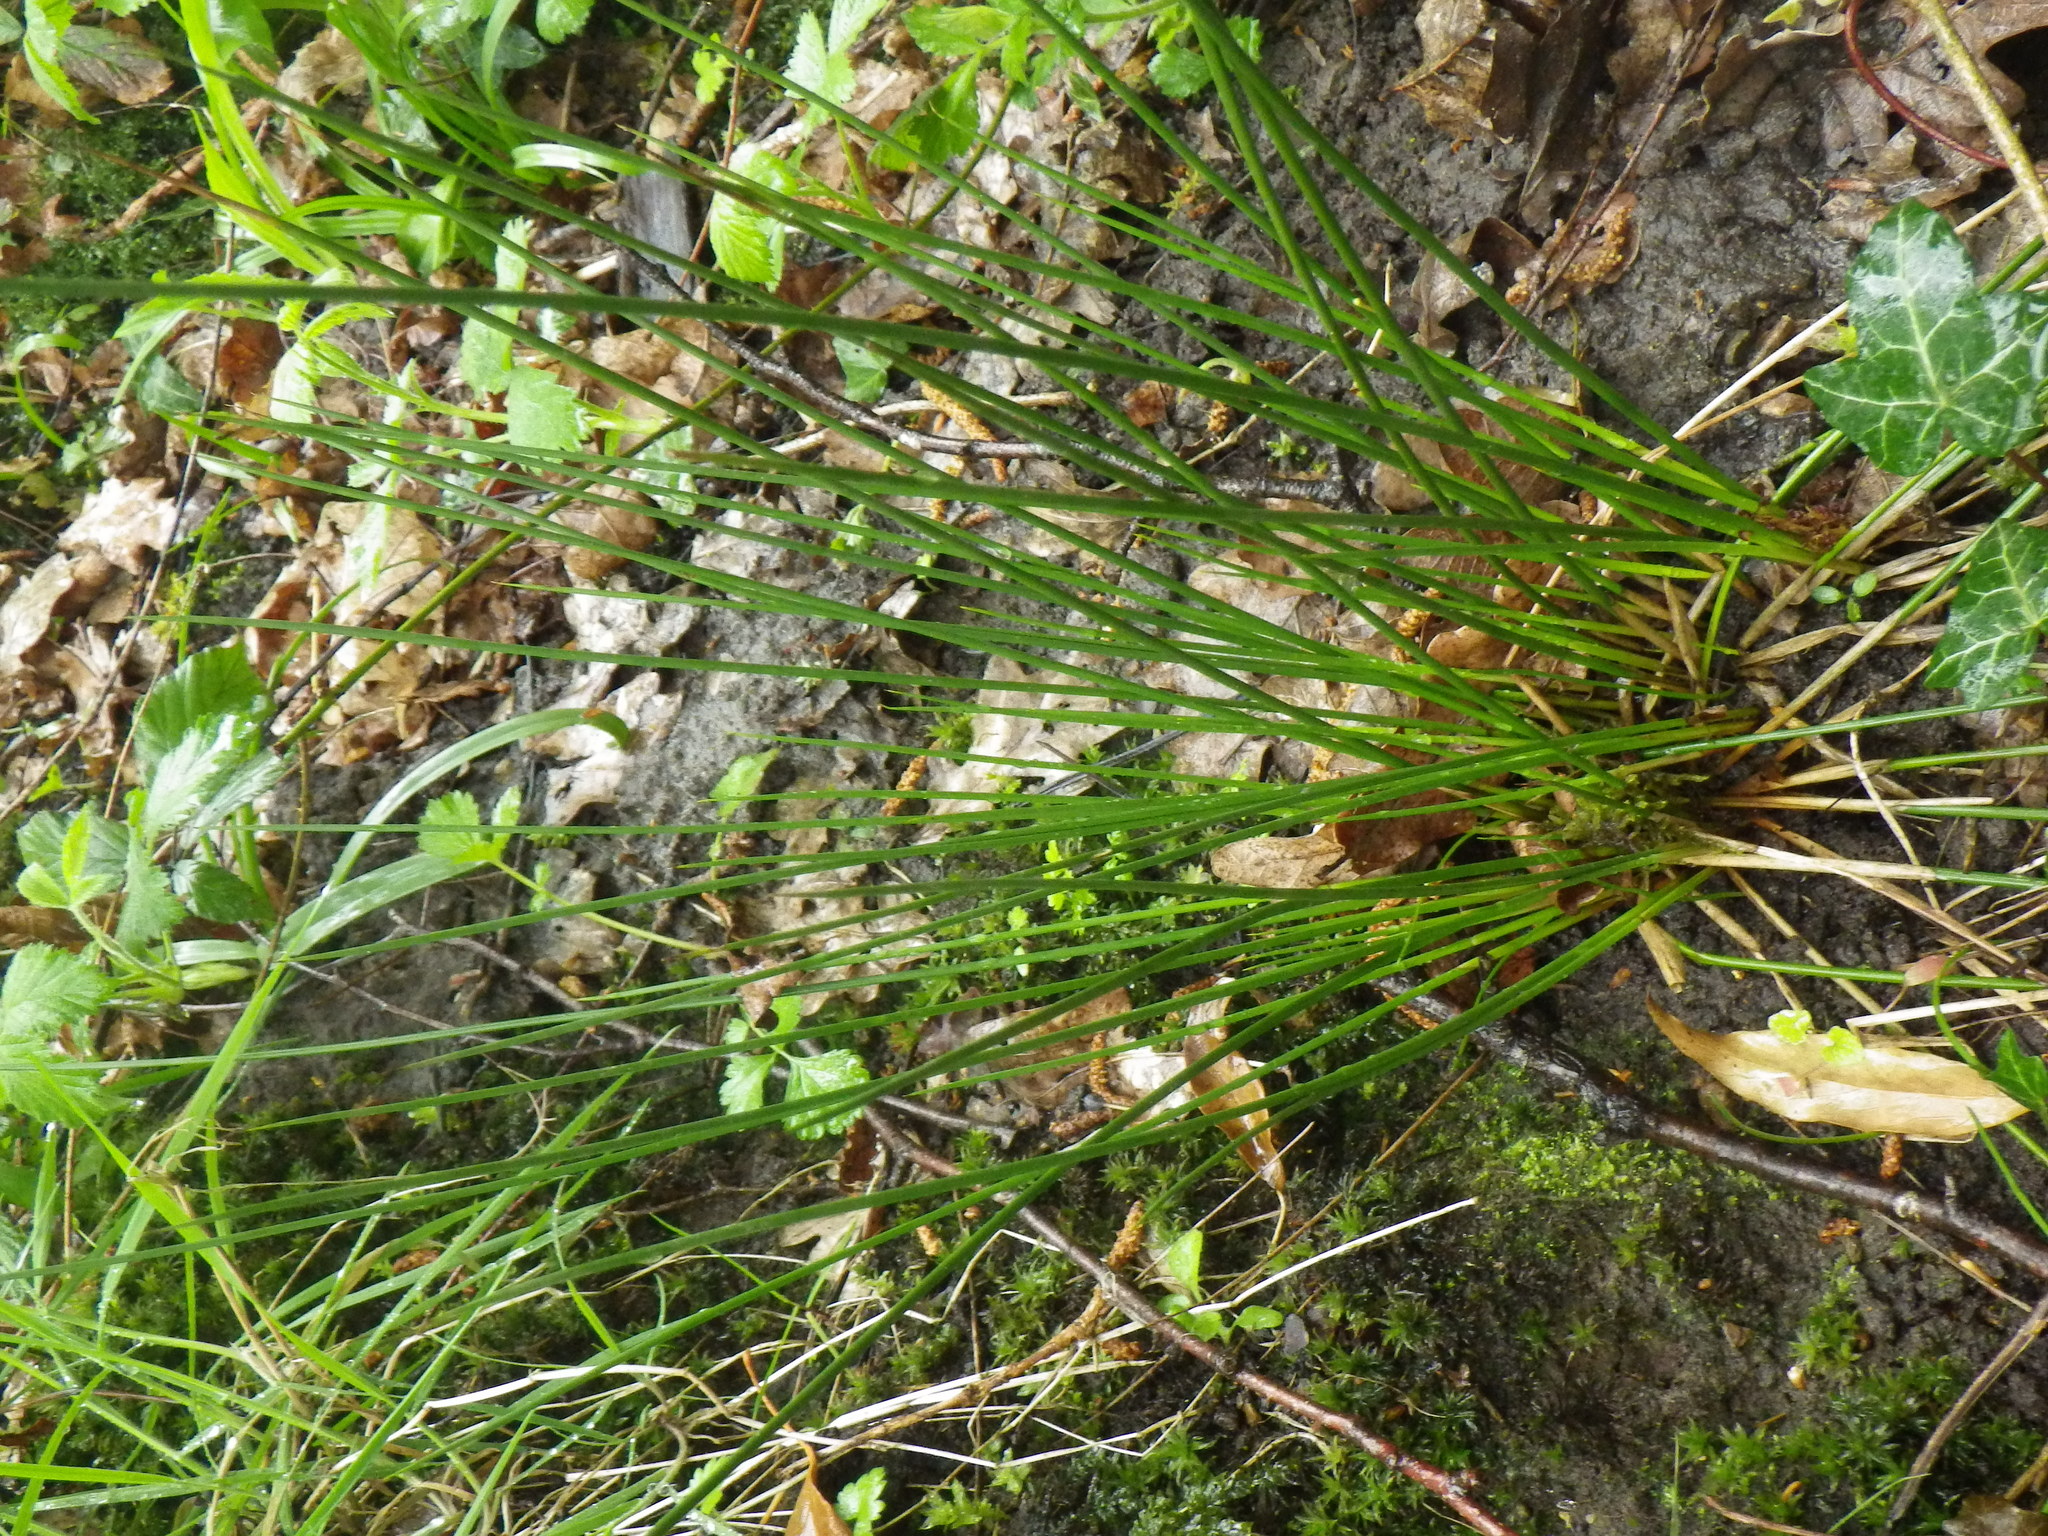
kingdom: Plantae
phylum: Tracheophyta
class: Liliopsida
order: Poales
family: Juncaceae
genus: Juncus
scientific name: Juncus effusus
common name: Soft rush
